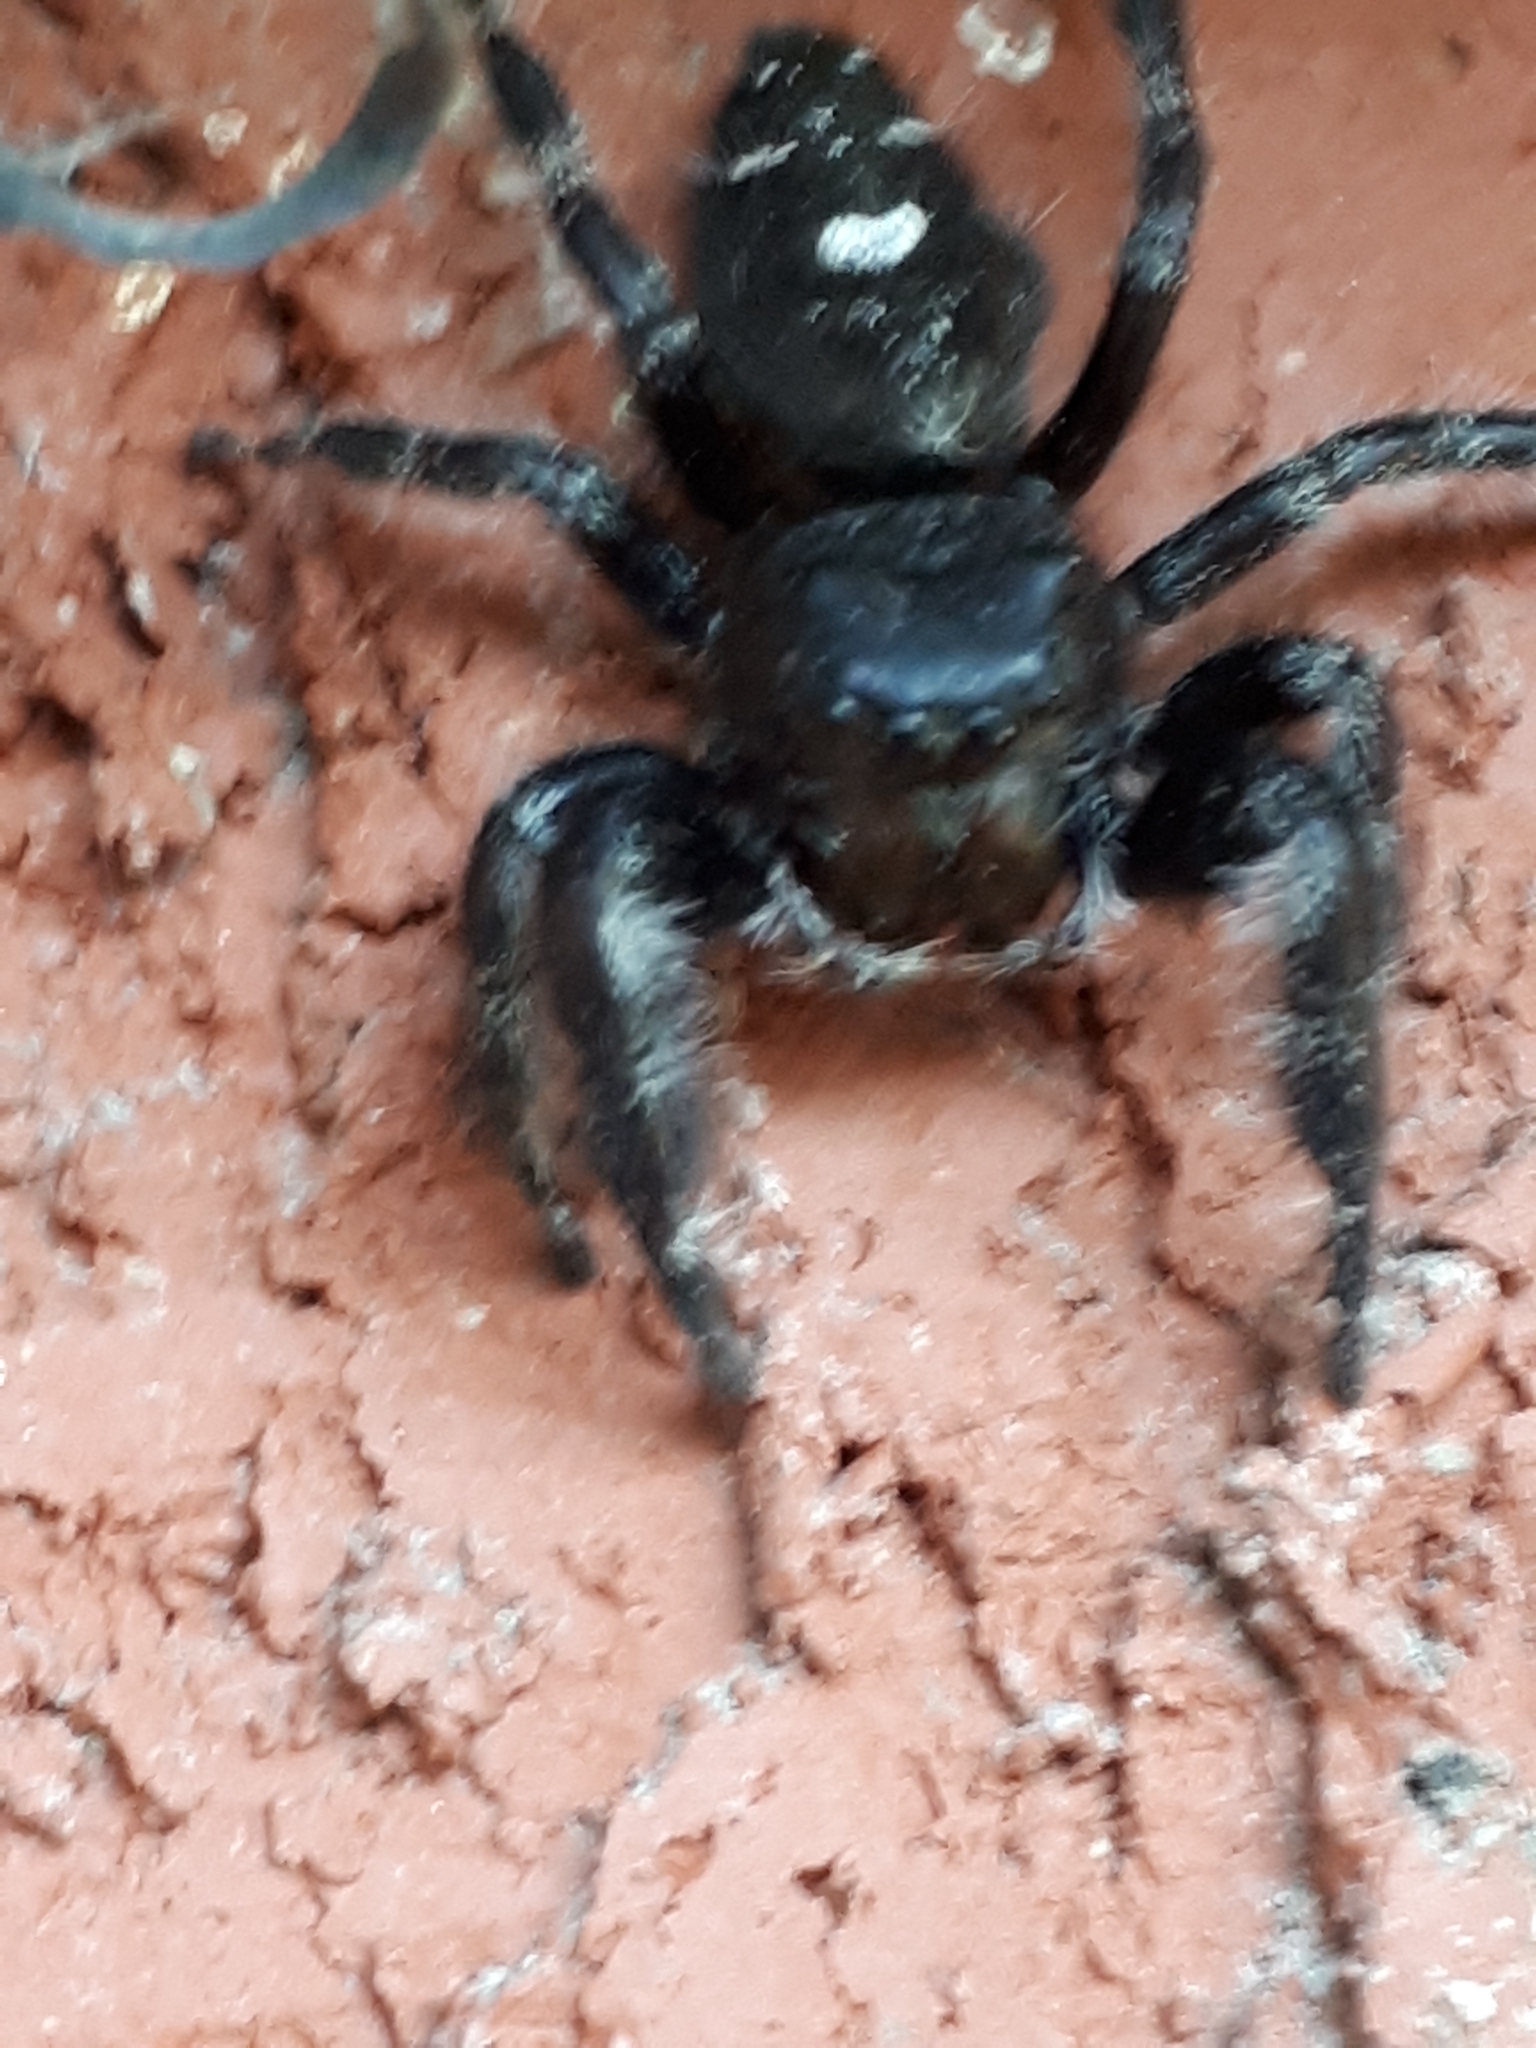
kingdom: Animalia
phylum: Arthropoda
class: Arachnida
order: Araneae
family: Salticidae
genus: Phidippus
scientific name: Phidippus audax
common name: Bold jumper
